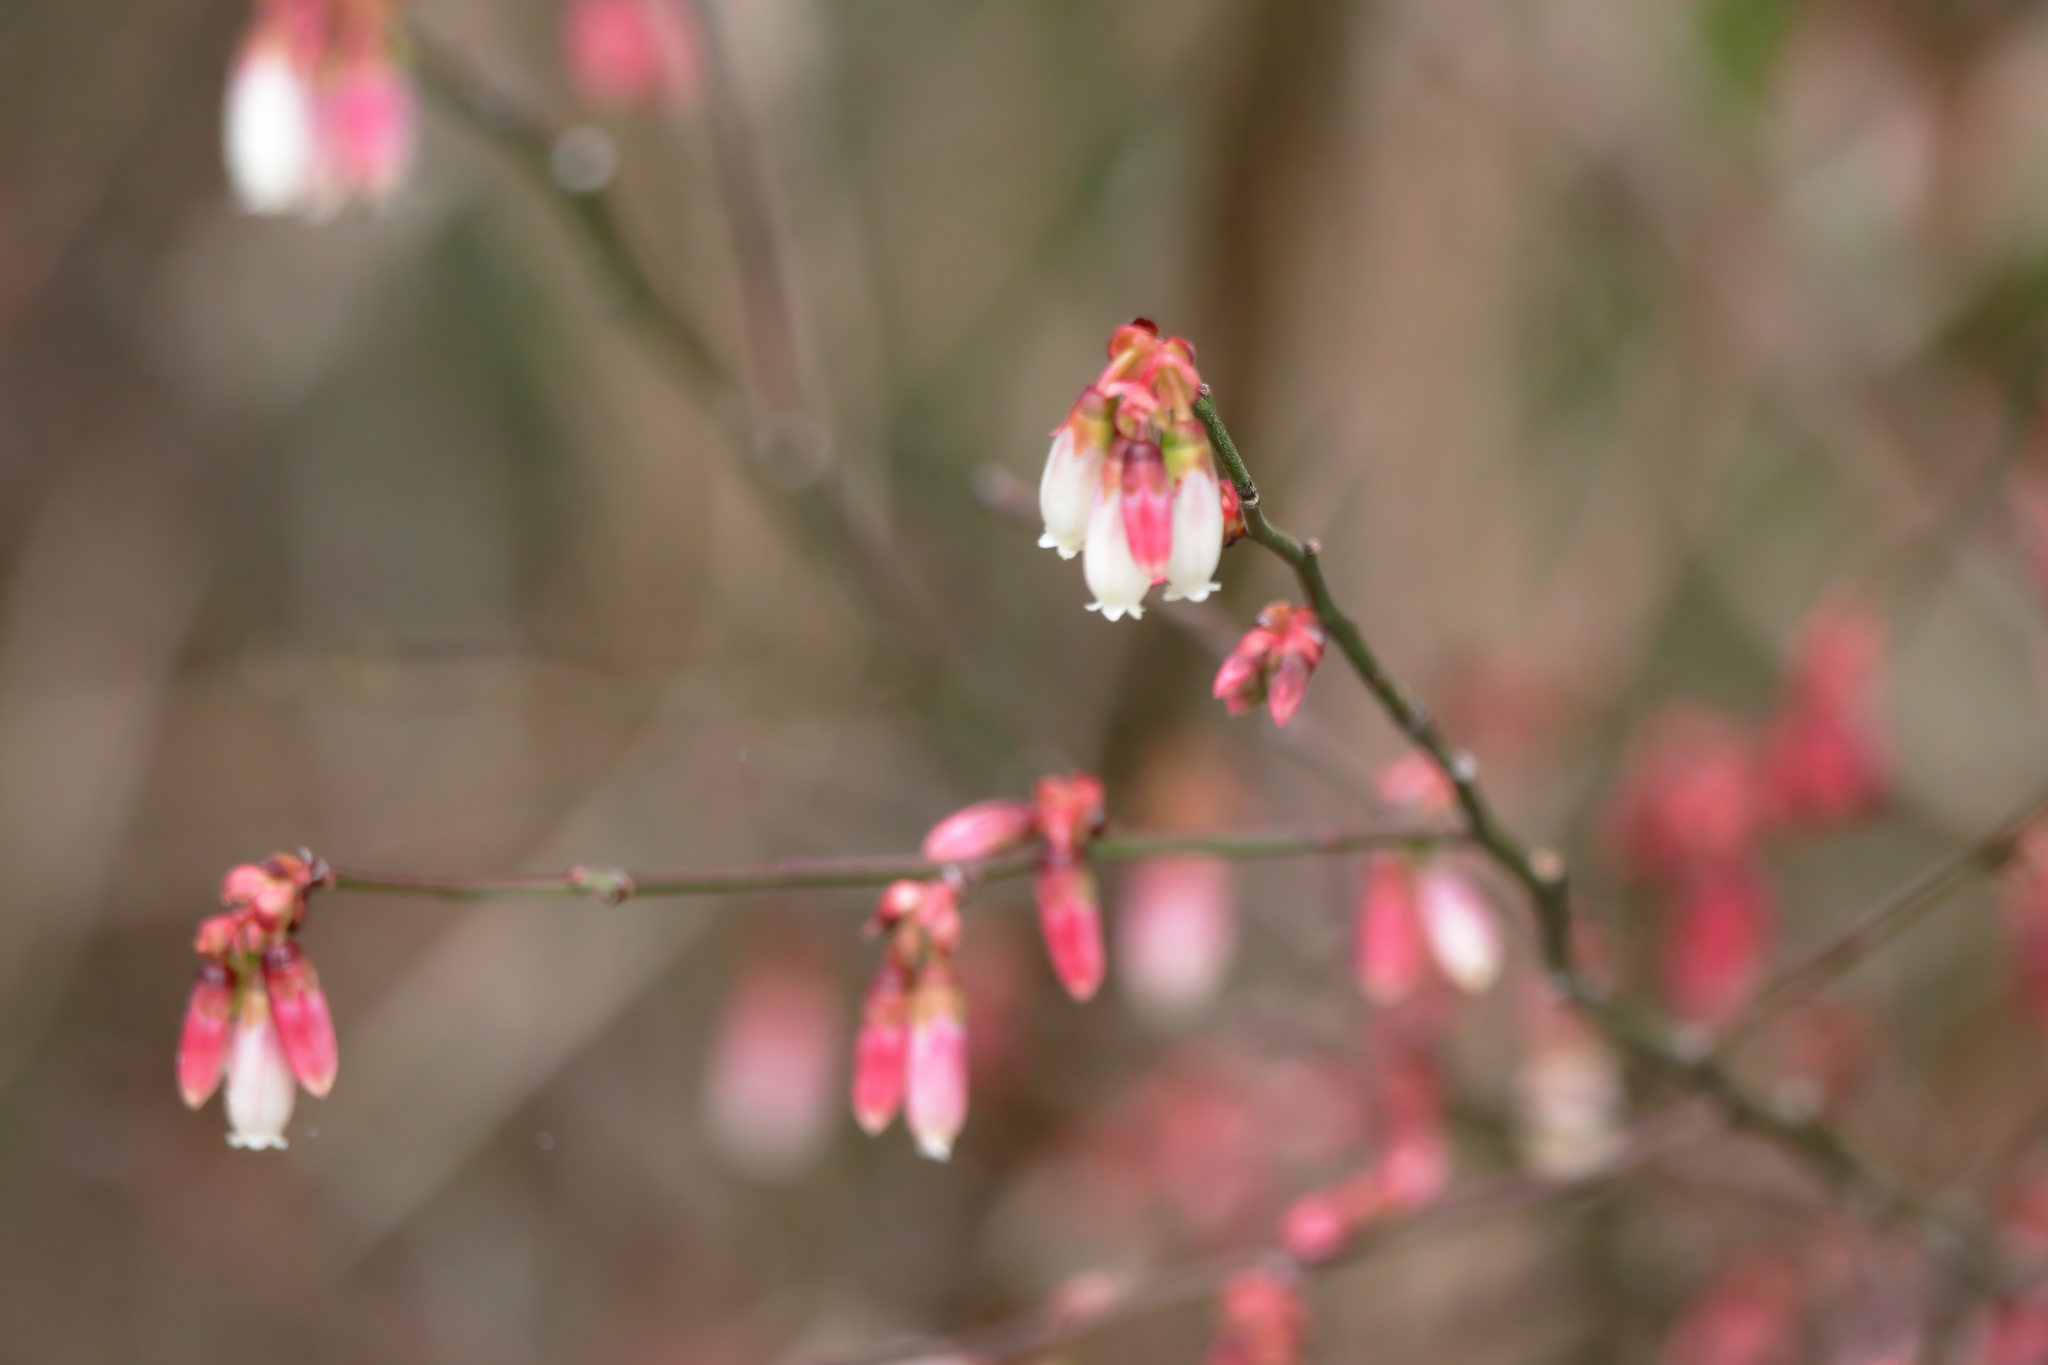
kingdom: Plantae
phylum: Tracheophyta
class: Magnoliopsida
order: Ericales
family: Ericaceae
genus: Vaccinium
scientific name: Vaccinium corymbosum
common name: Blueberry
